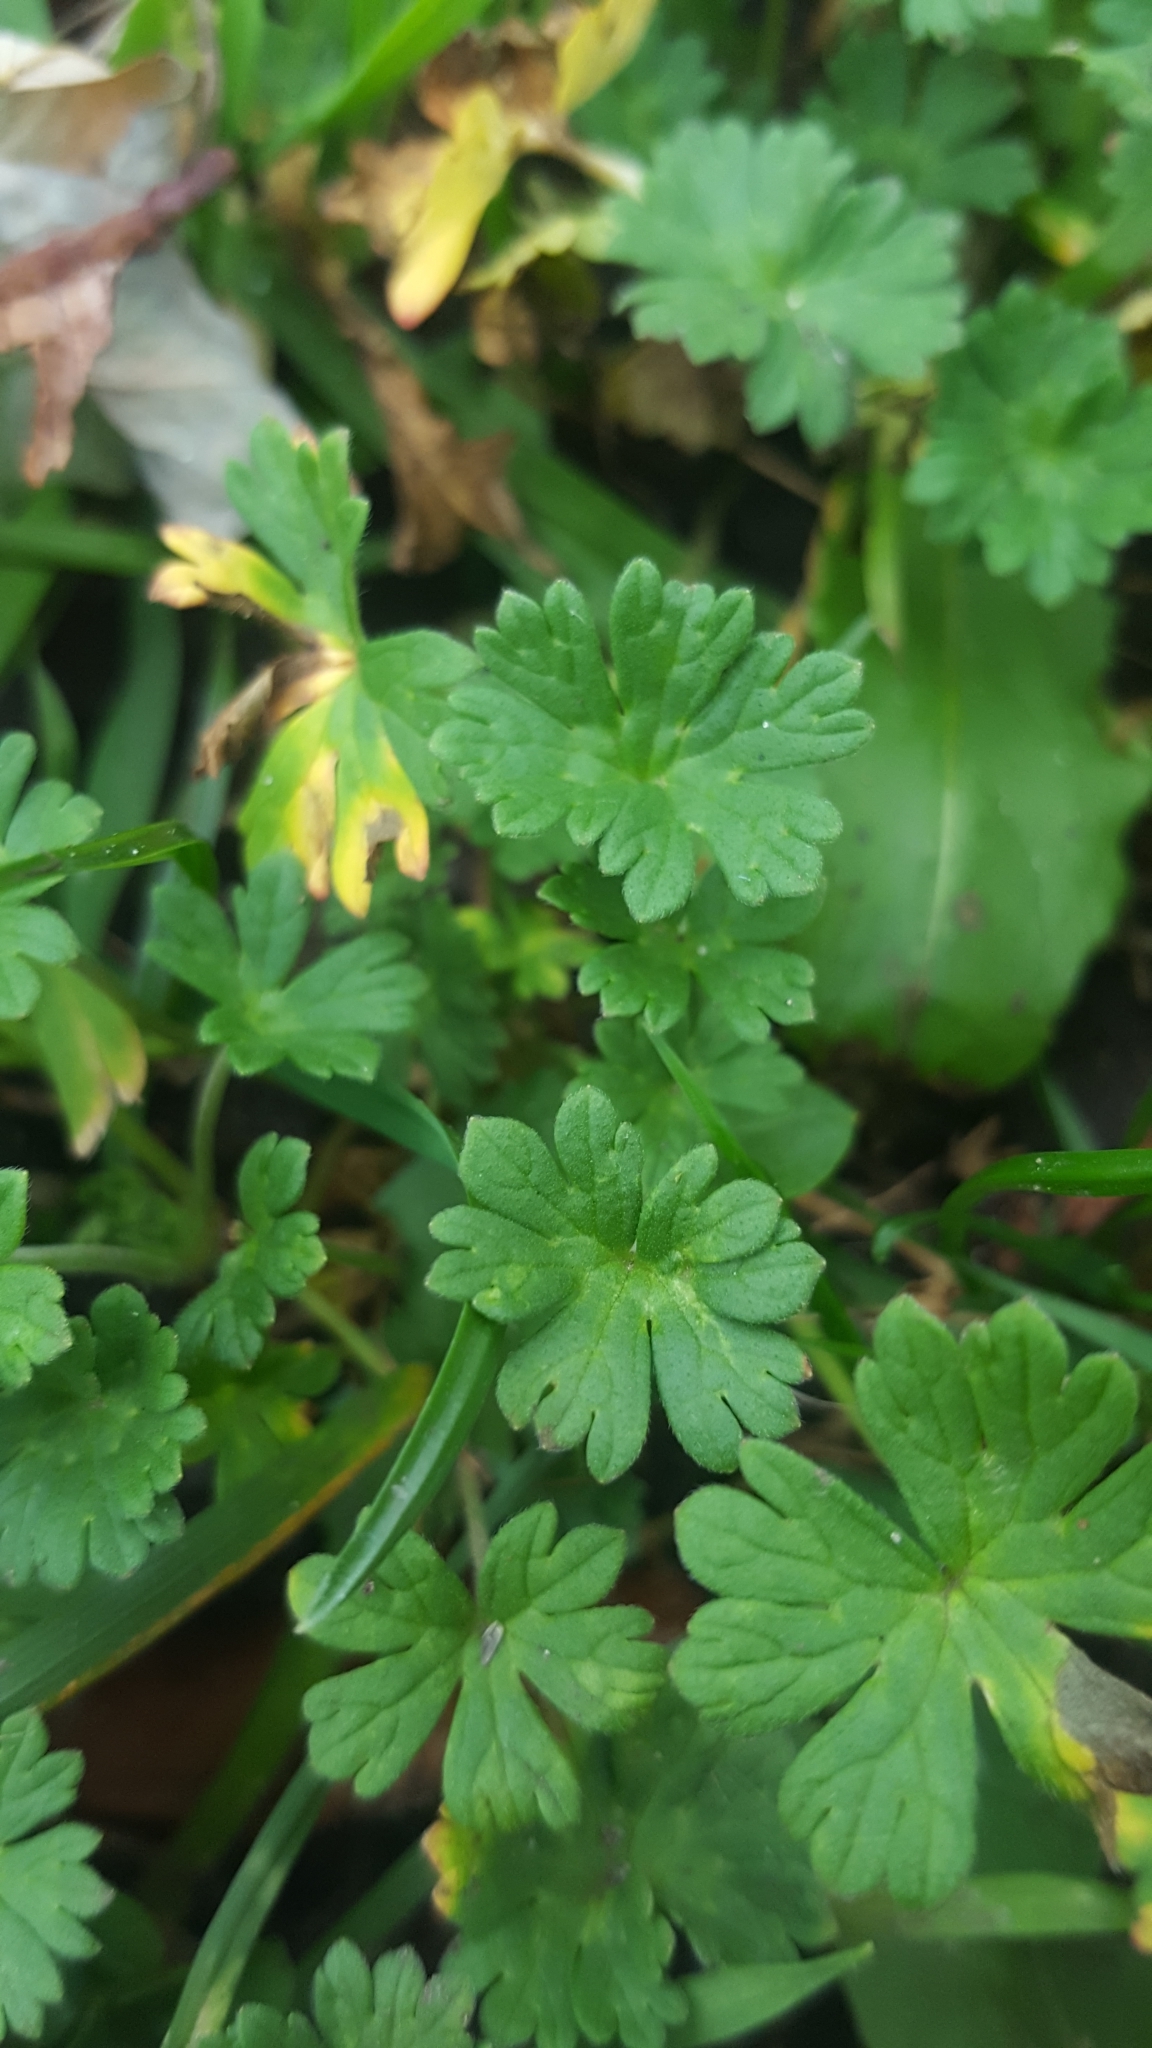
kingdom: Plantae
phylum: Tracheophyta
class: Magnoliopsida
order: Geraniales
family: Geraniaceae
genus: Geranium
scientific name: Geranium molle
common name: Dove's-foot crane's-bill
